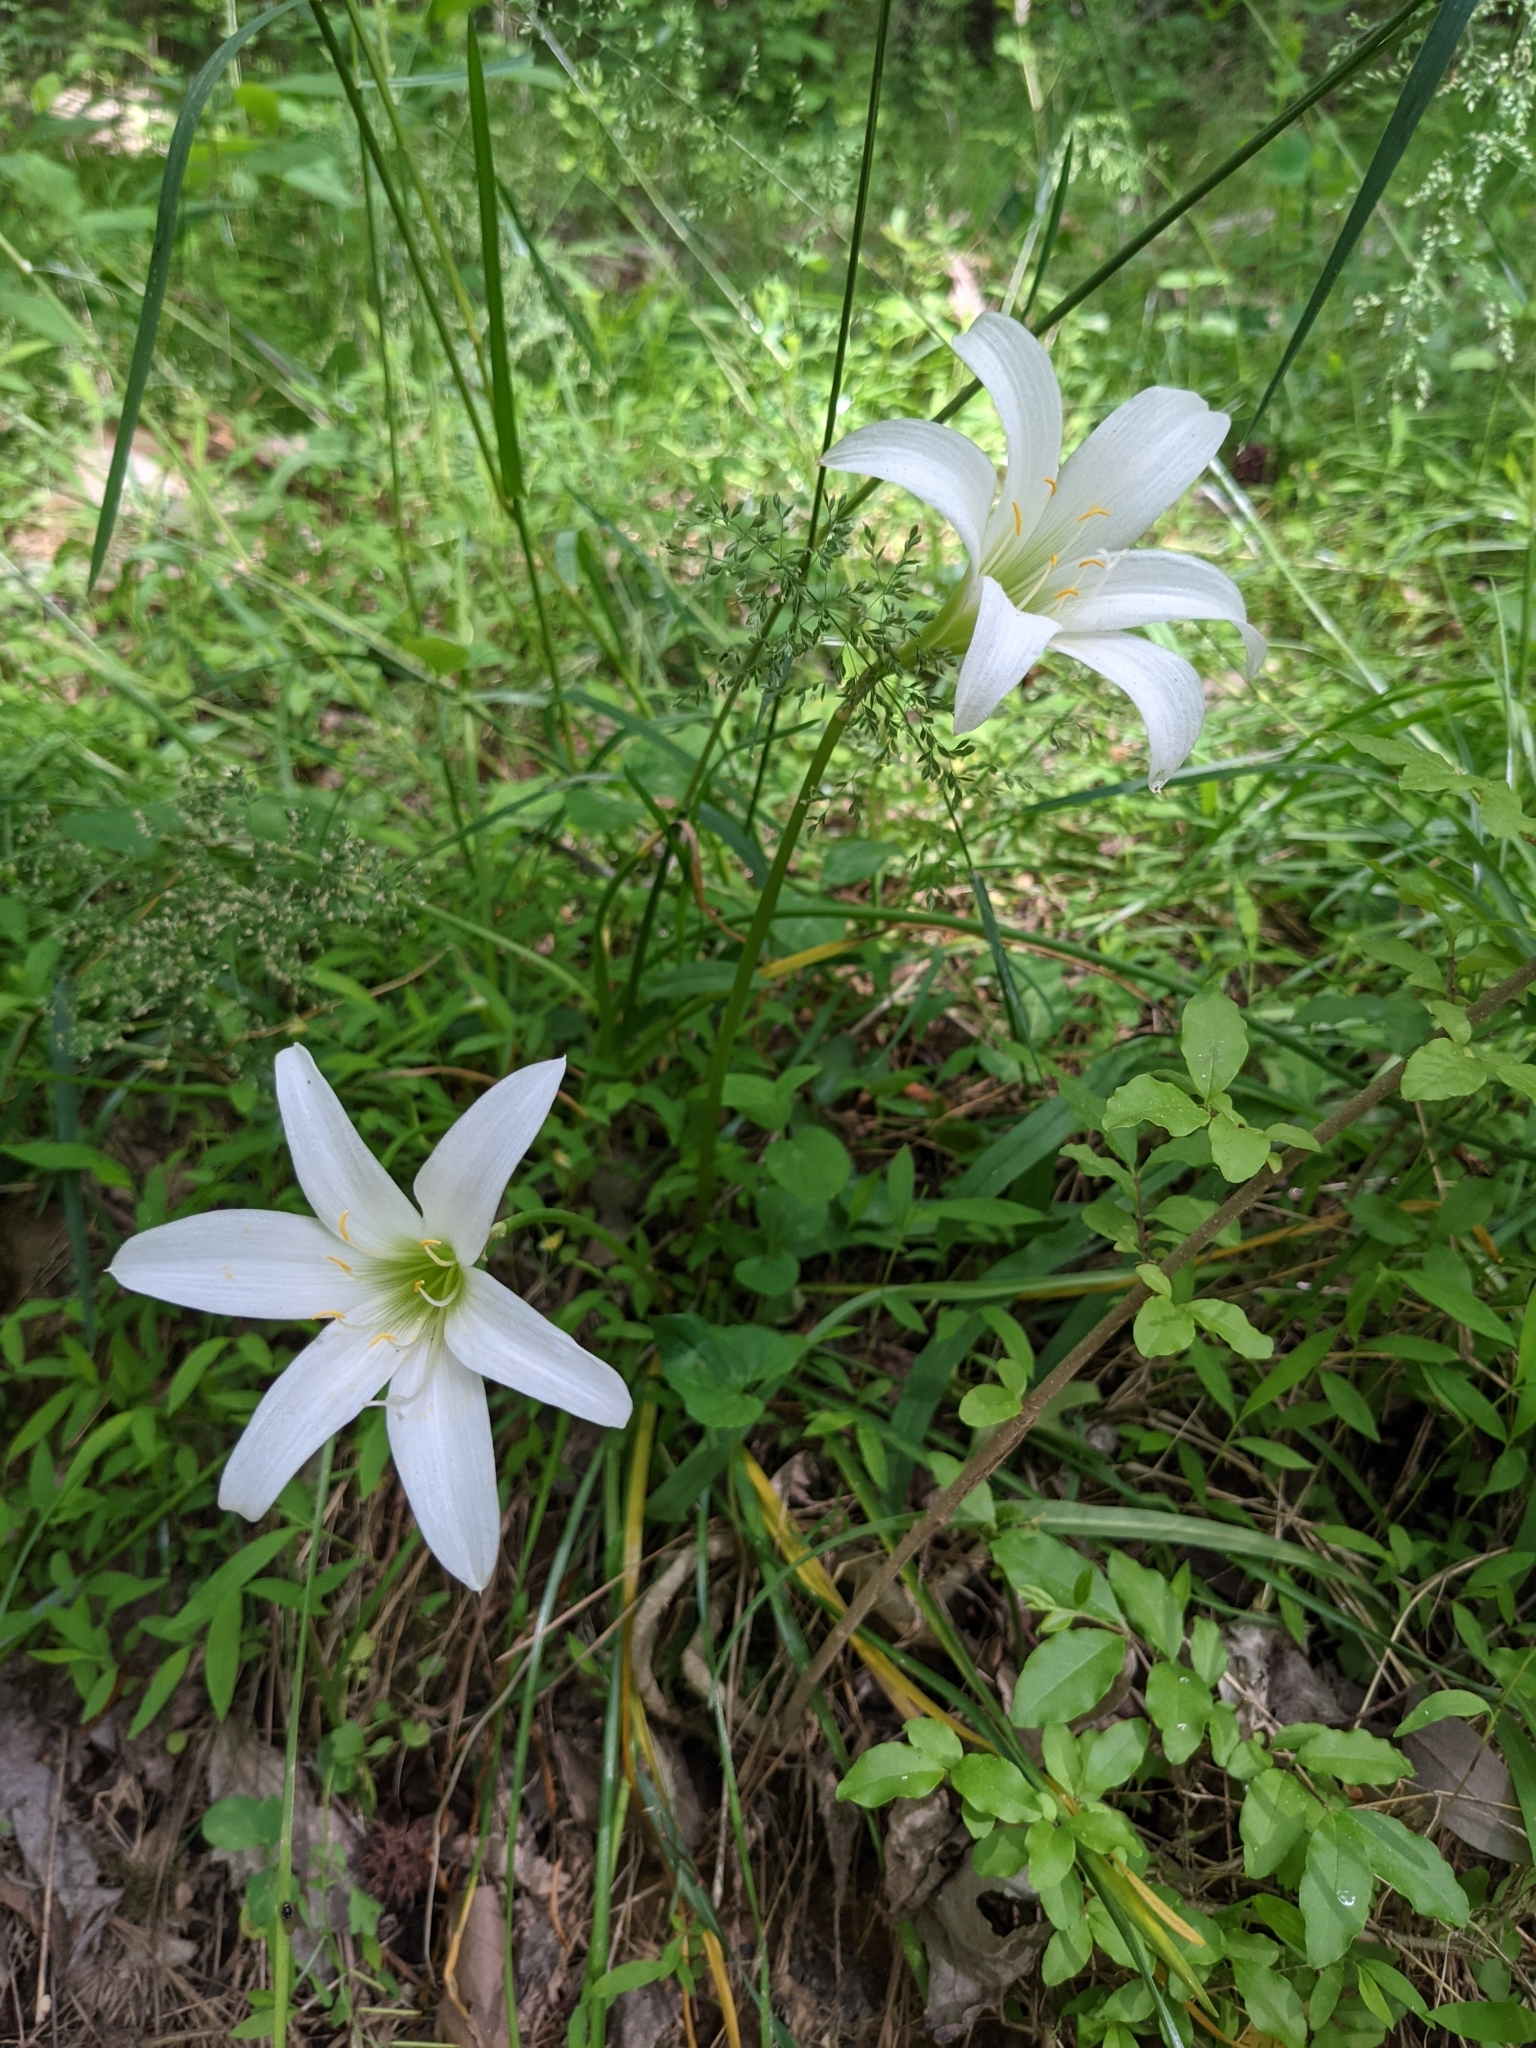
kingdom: Plantae
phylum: Tracheophyta
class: Liliopsida
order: Asparagales
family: Amaryllidaceae
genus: Zephyranthes
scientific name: Zephyranthes atamasco
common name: Atamasco lily
